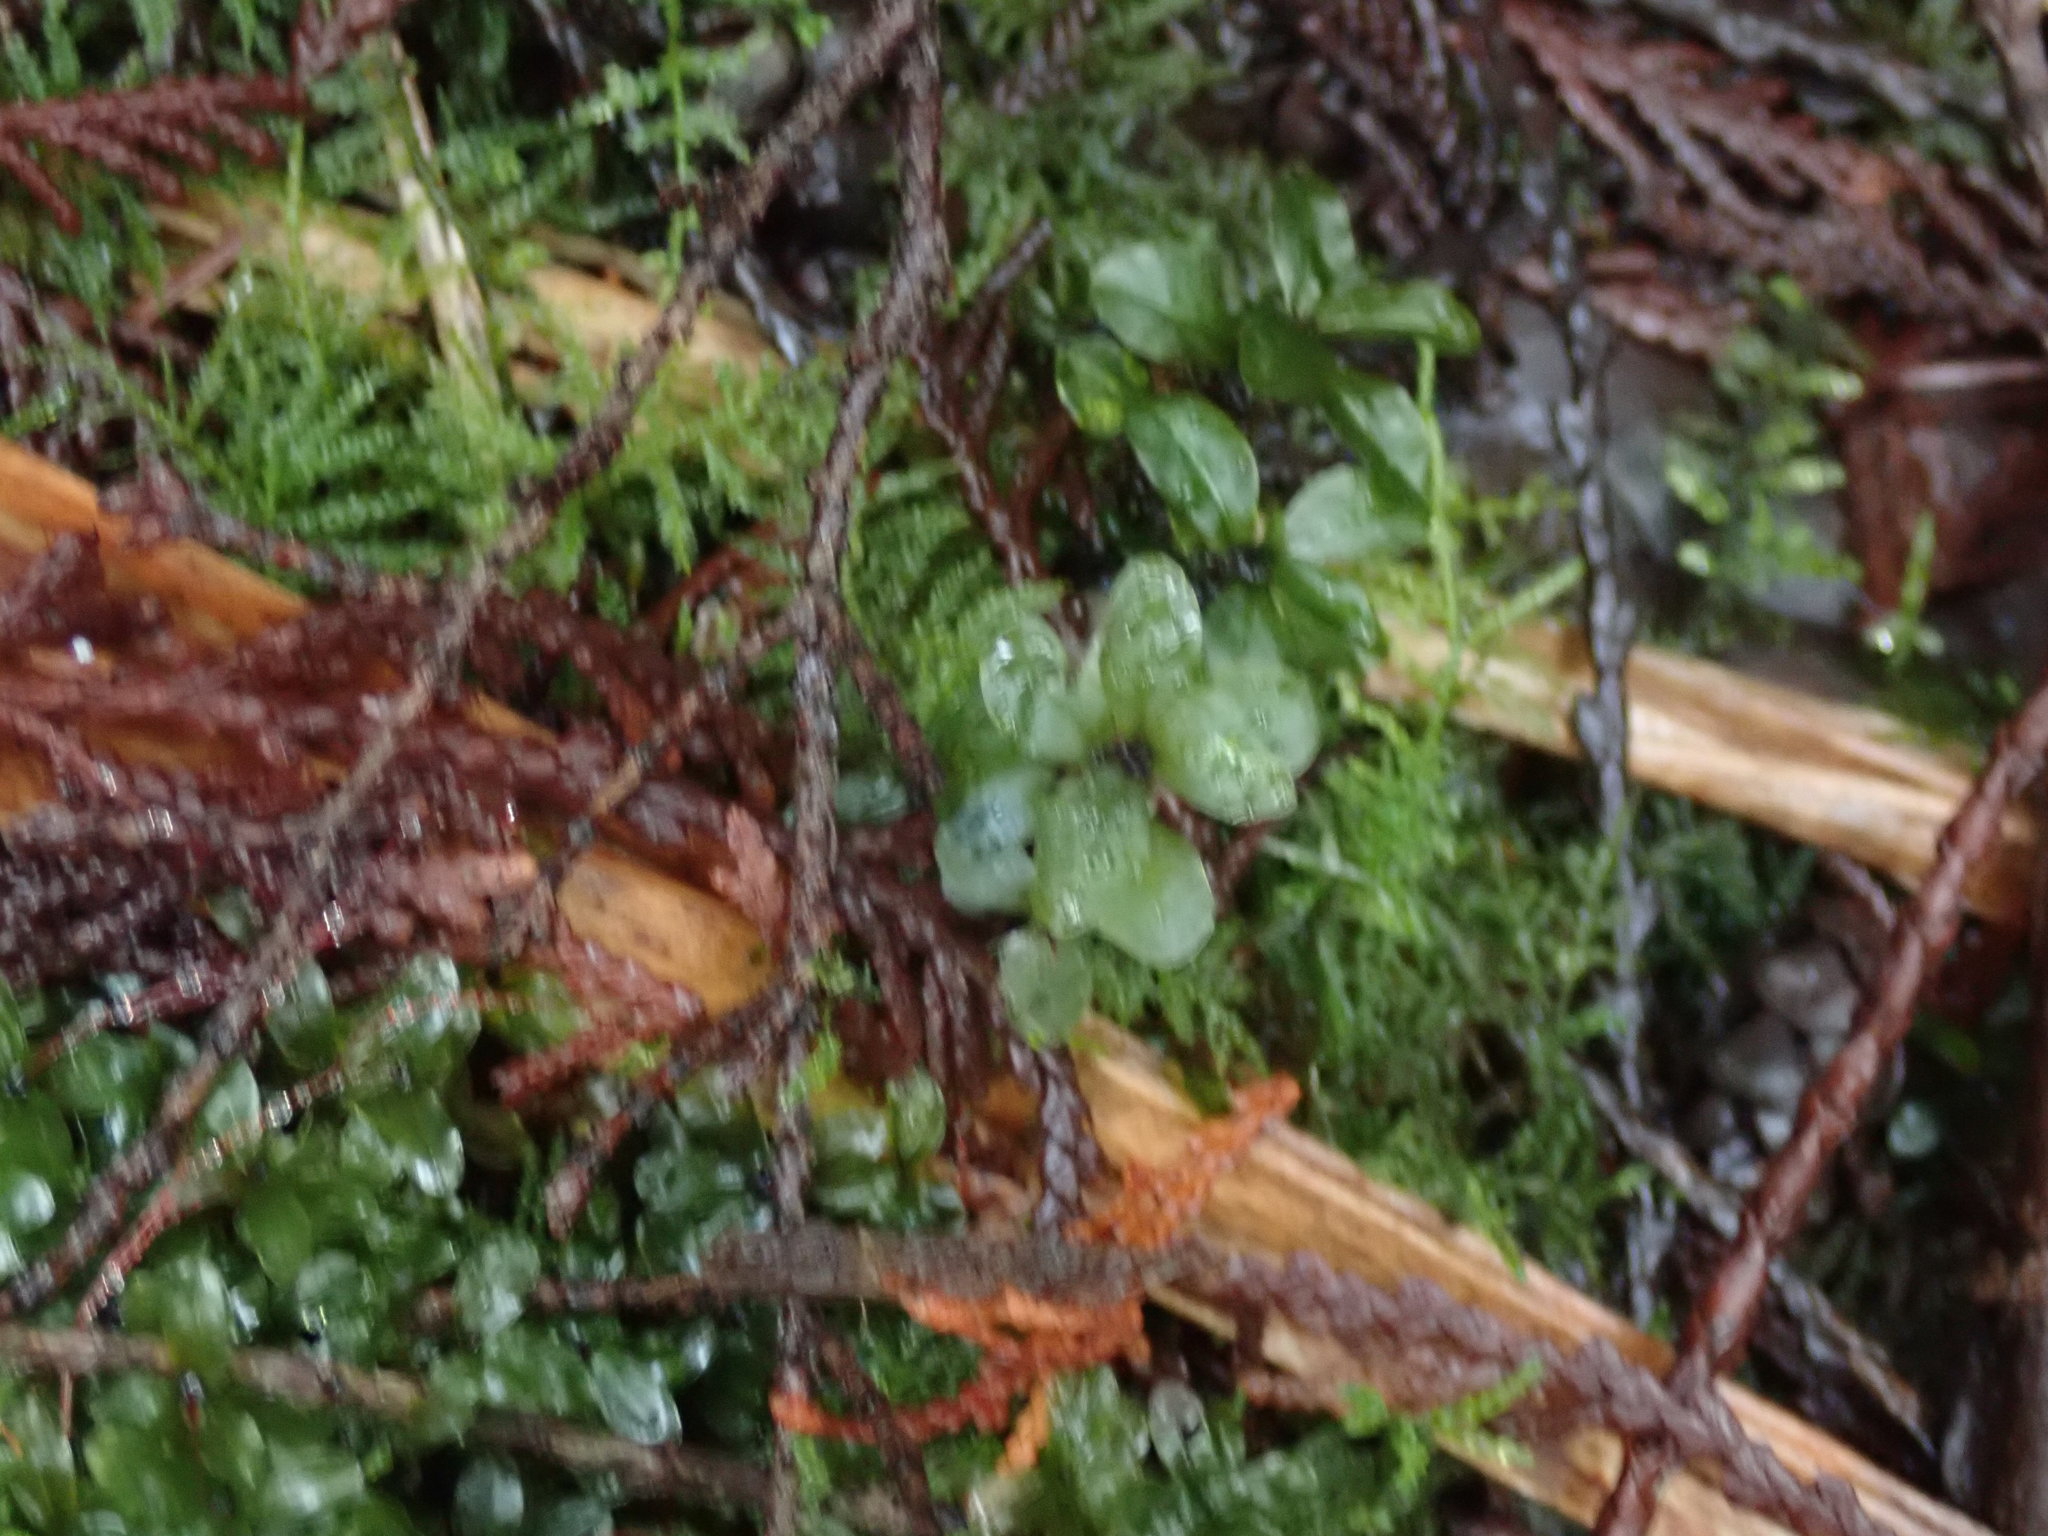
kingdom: Plantae
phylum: Bryophyta
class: Bryopsida
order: Bryales
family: Mniaceae
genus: Rhizomnium
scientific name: Rhizomnium magnifolium
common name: Large-leaved leafy moss
